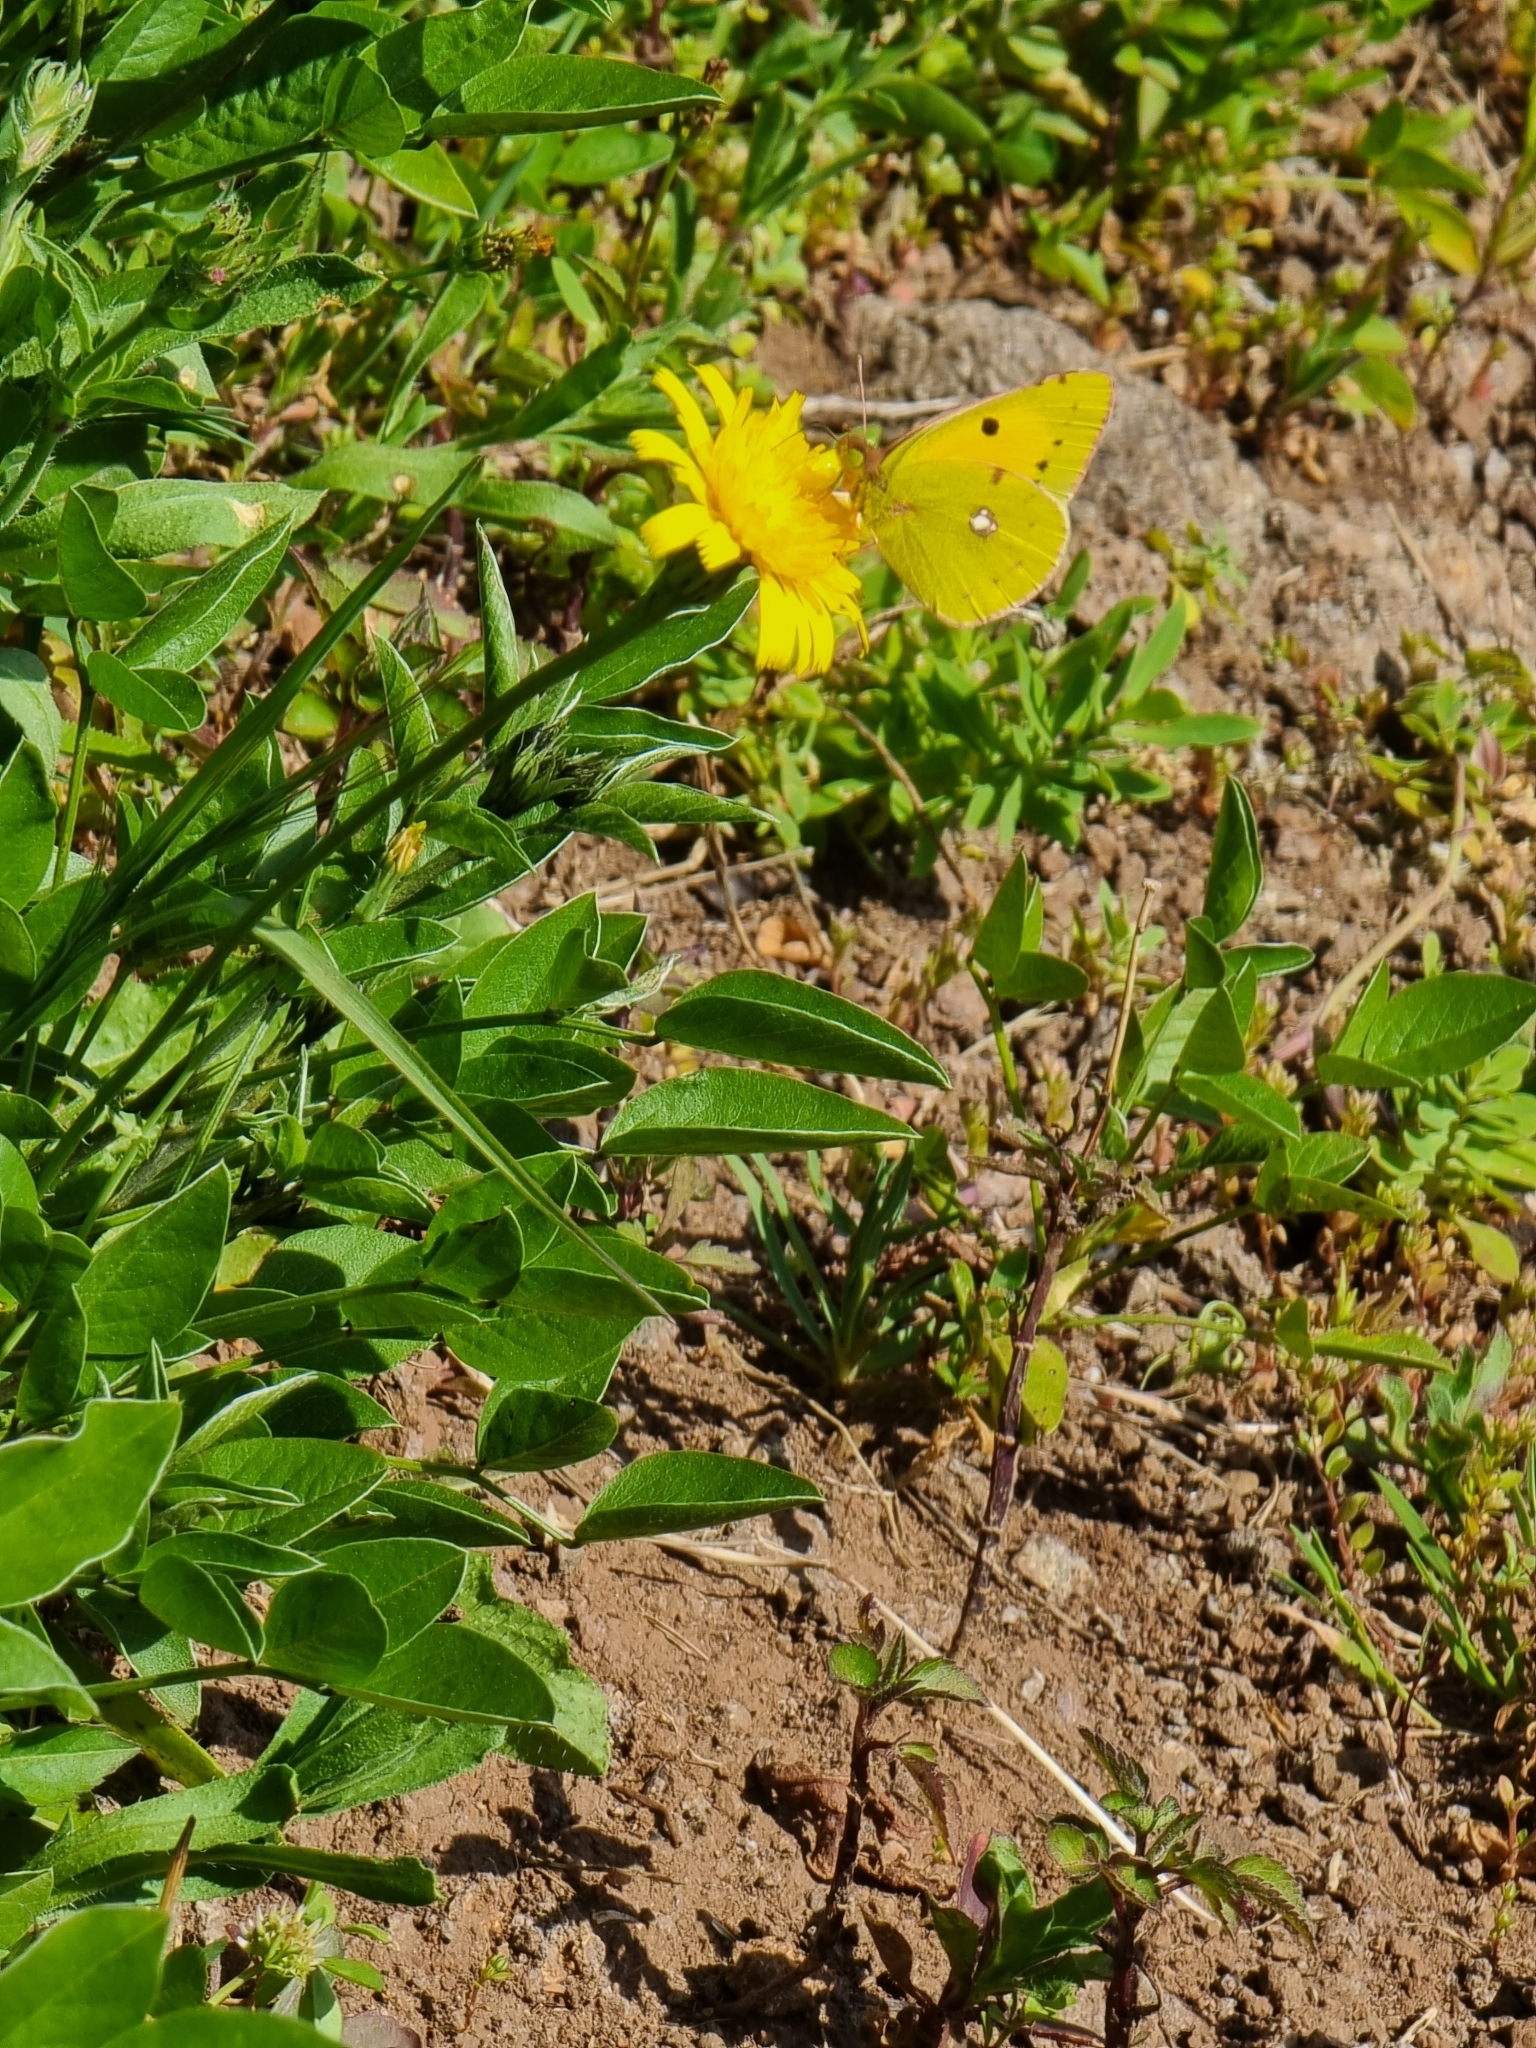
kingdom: Animalia
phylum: Arthropoda
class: Insecta
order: Lepidoptera
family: Pieridae
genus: Colias
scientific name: Colias croceus
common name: Clouded yellow
